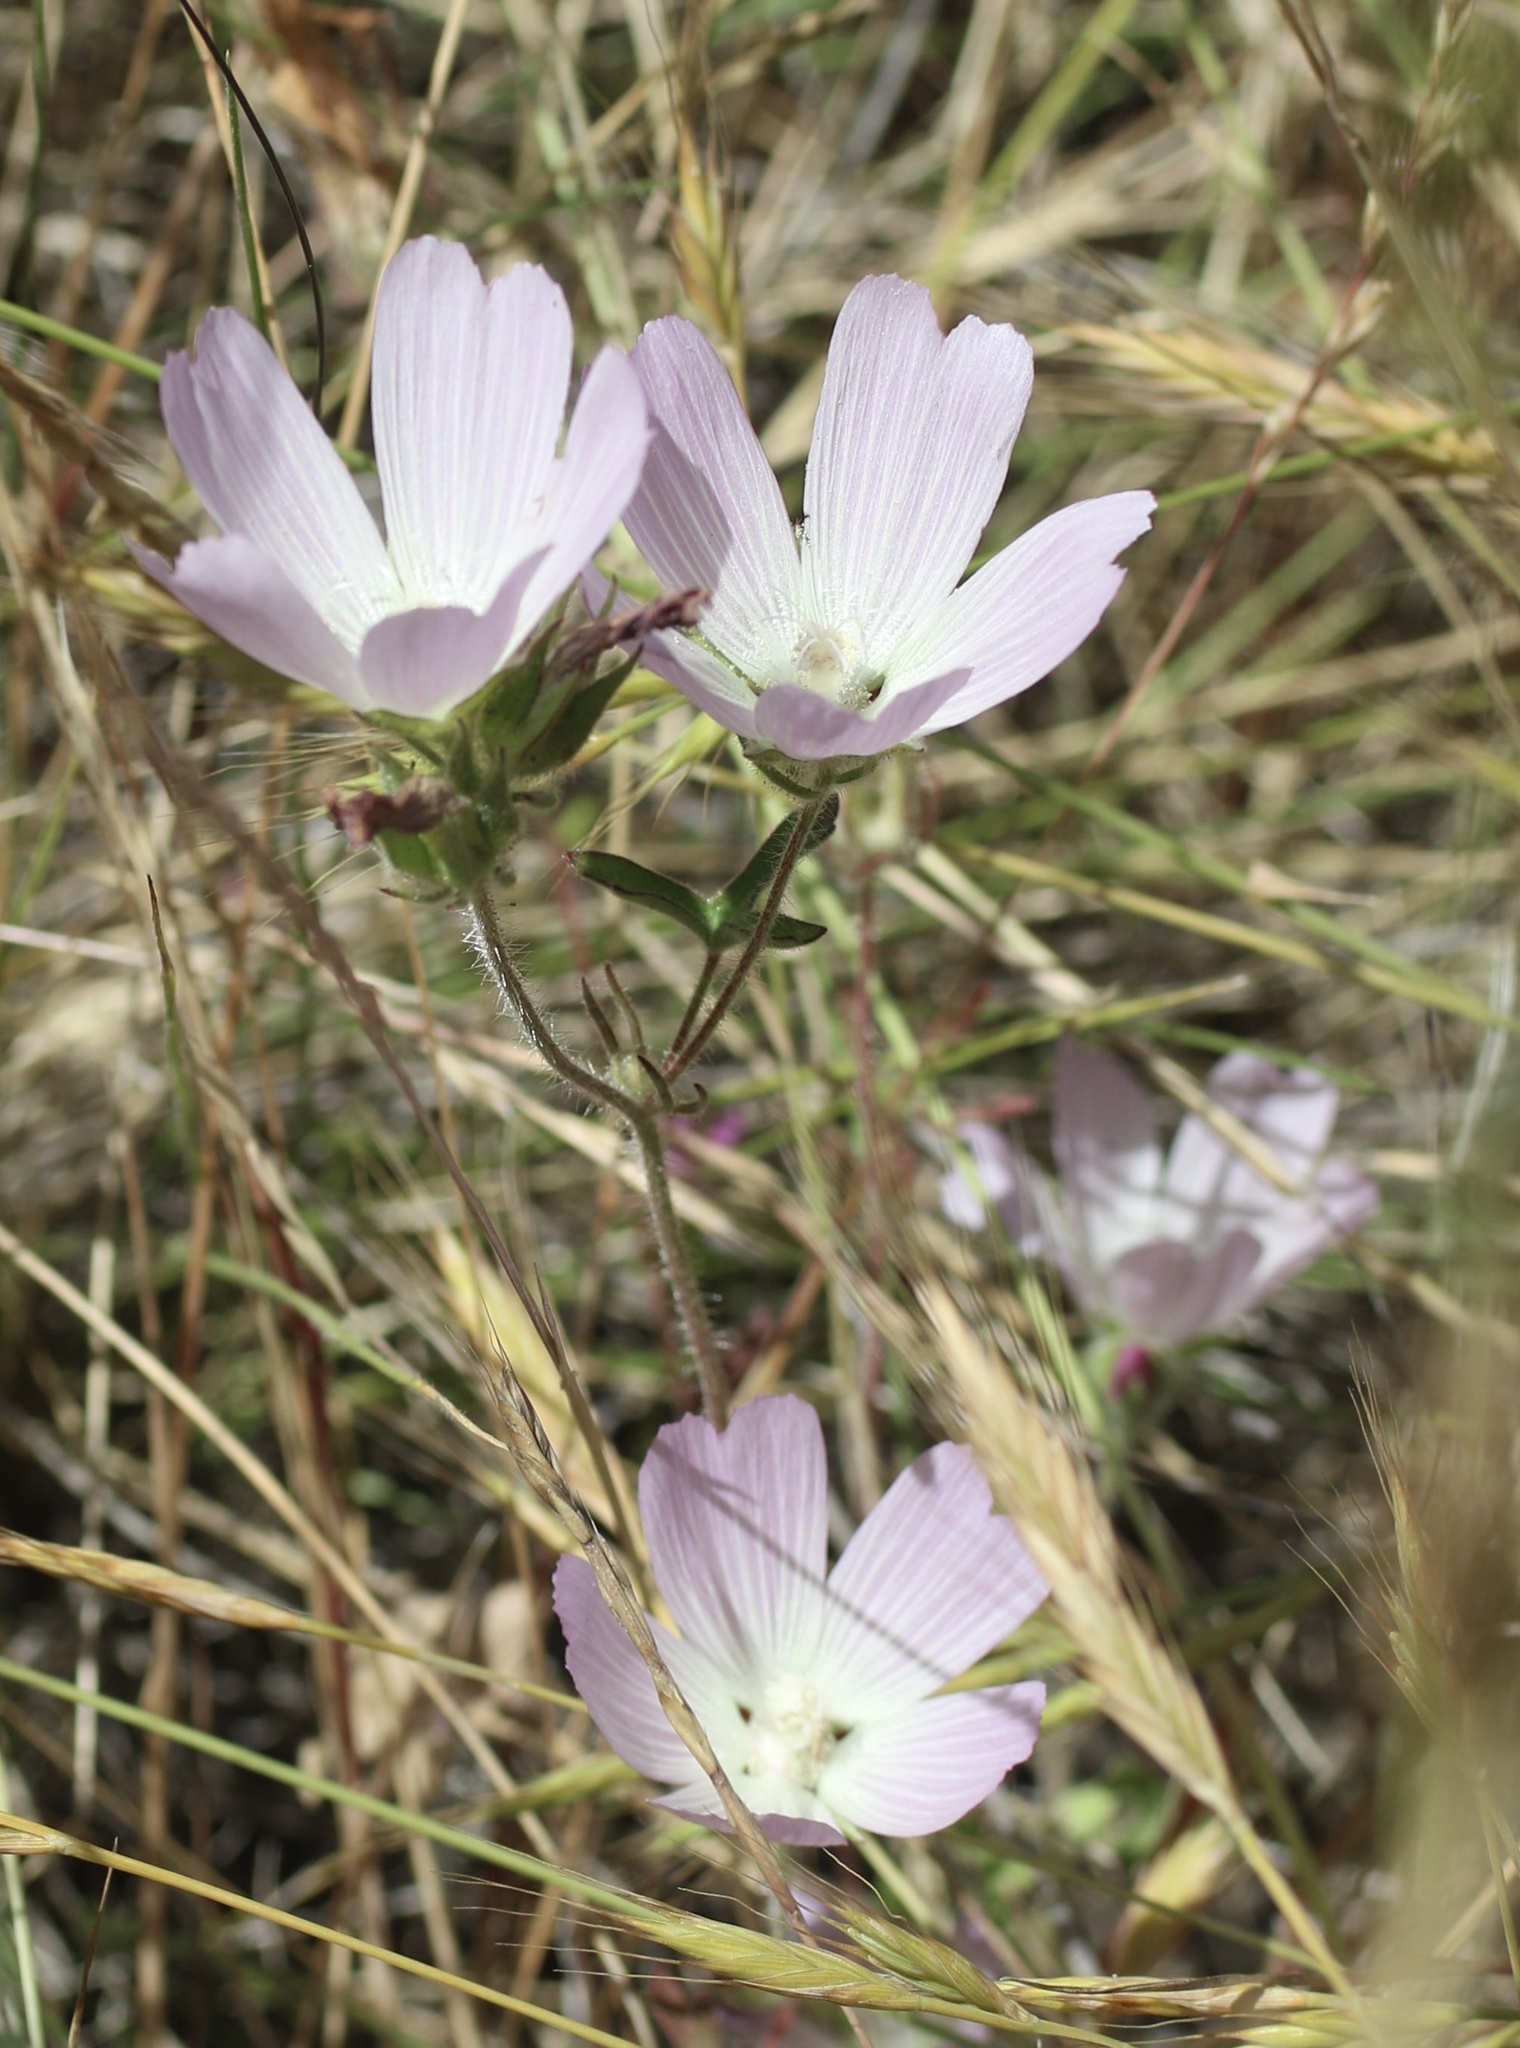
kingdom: Plantae
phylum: Tracheophyta
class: Magnoliopsida
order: Malvales
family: Malvaceae
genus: Sidalcea
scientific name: Sidalcea diploscypha
